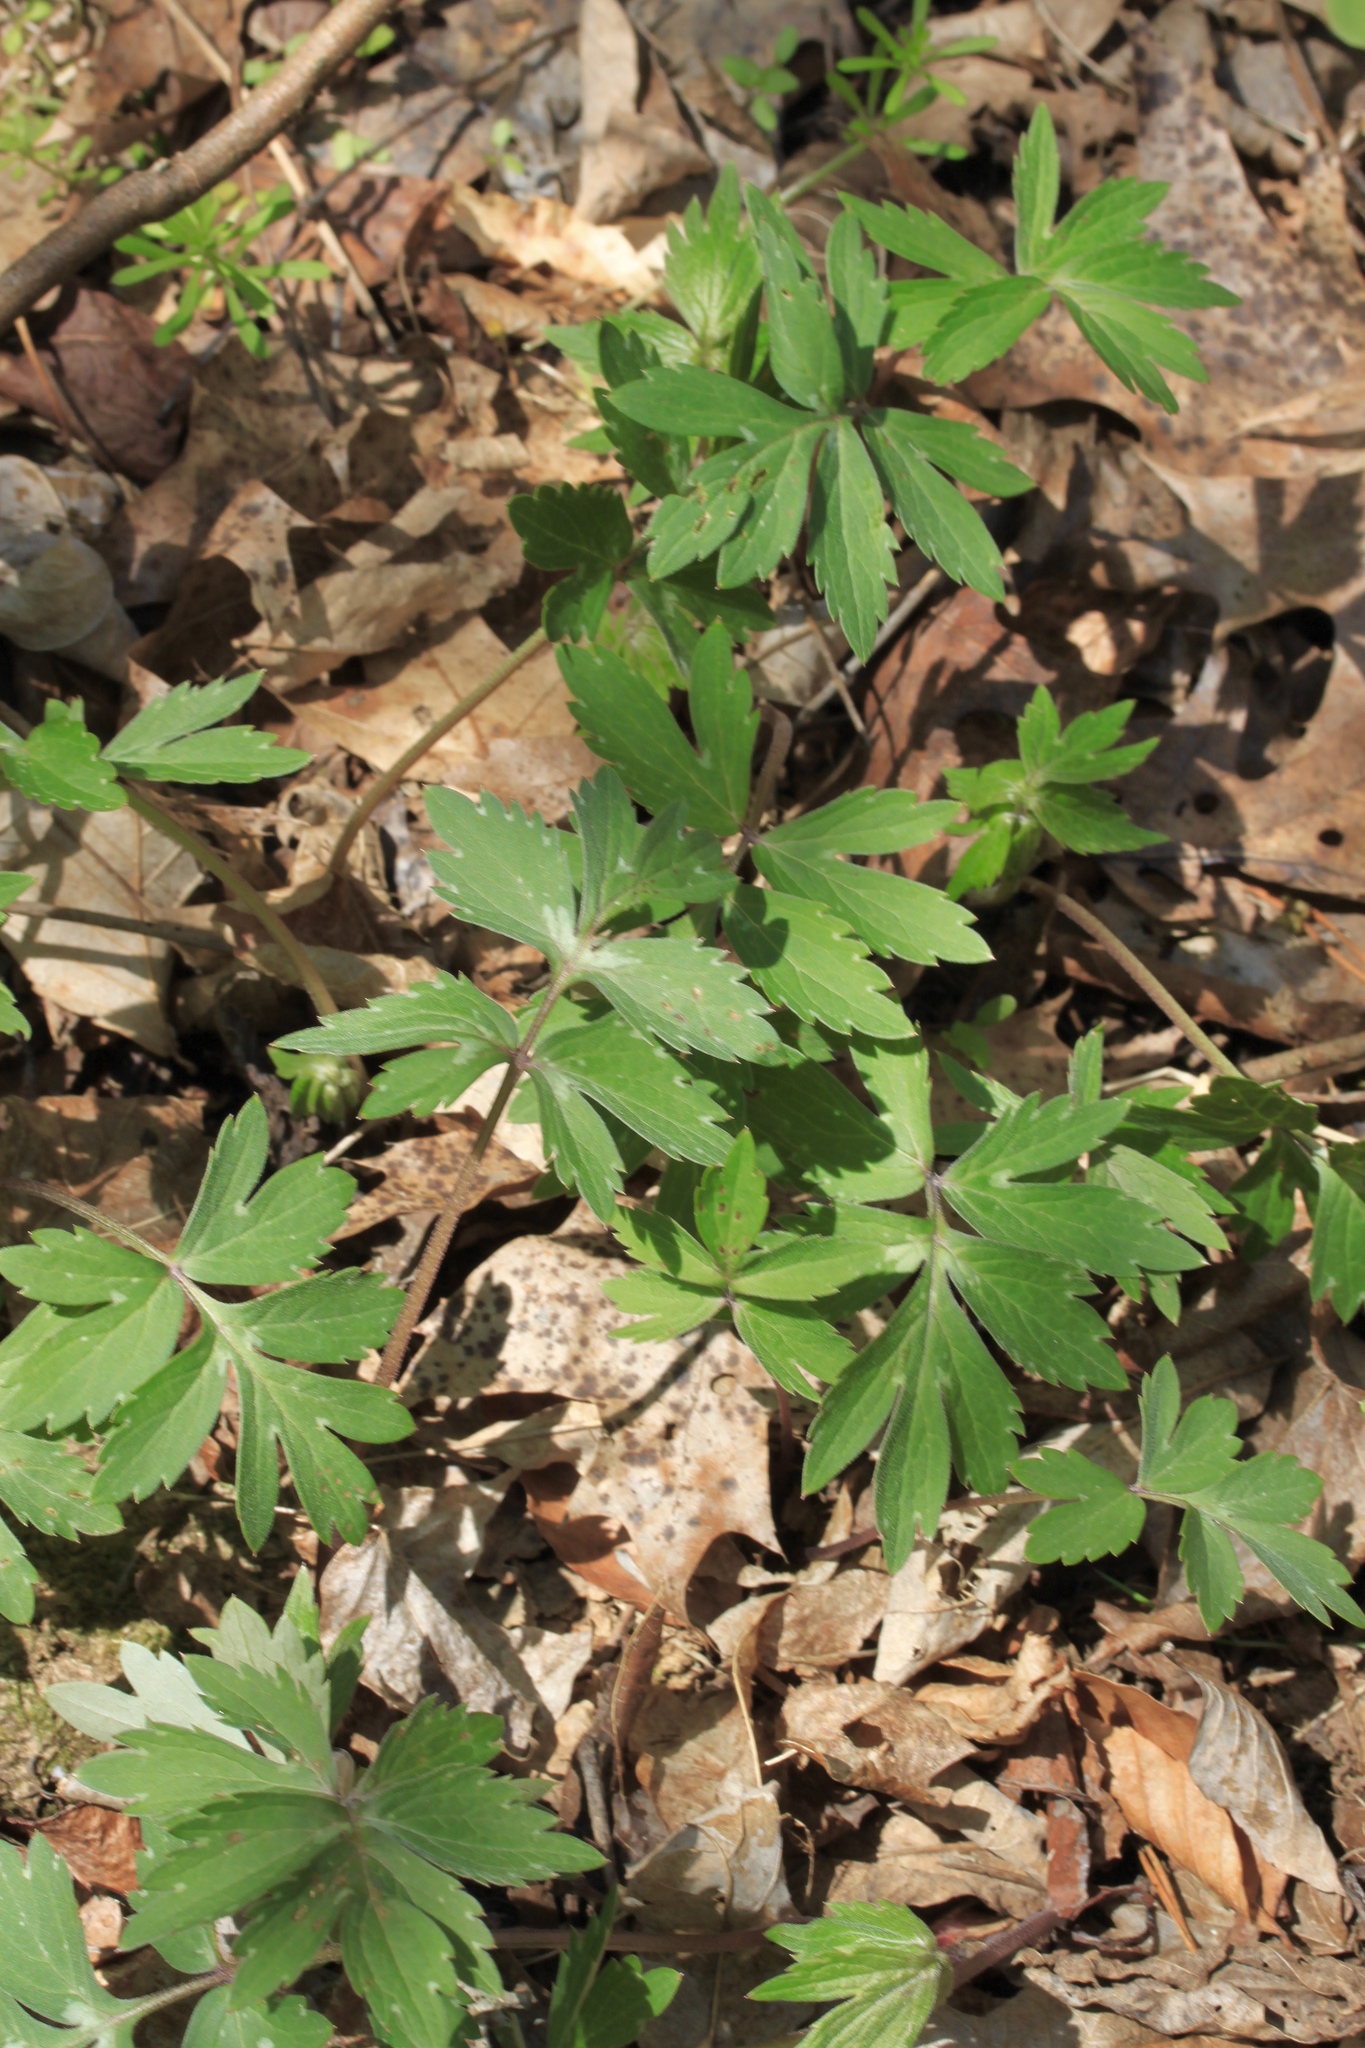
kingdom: Plantae
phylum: Tracheophyta
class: Magnoliopsida
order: Boraginales
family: Hydrophyllaceae
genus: Hydrophyllum
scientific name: Hydrophyllum virginianum
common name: Virginia waterleaf
